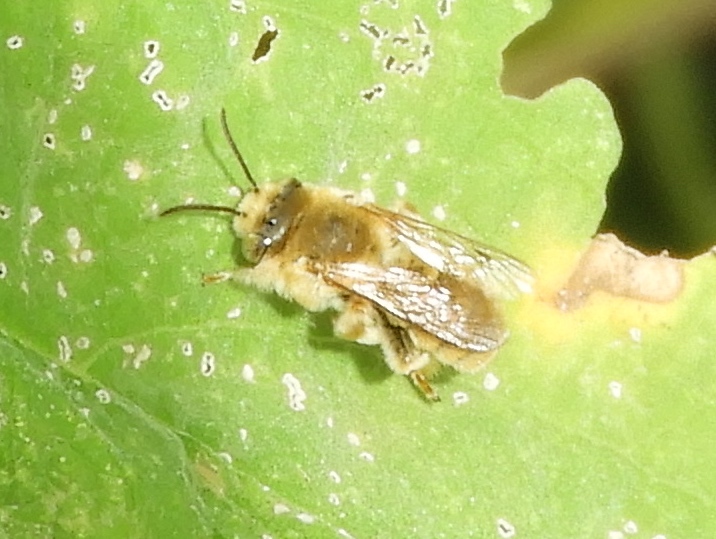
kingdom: Animalia
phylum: Arthropoda
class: Insecta
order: Hymenoptera
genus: Dasiapis
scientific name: Dasiapis
